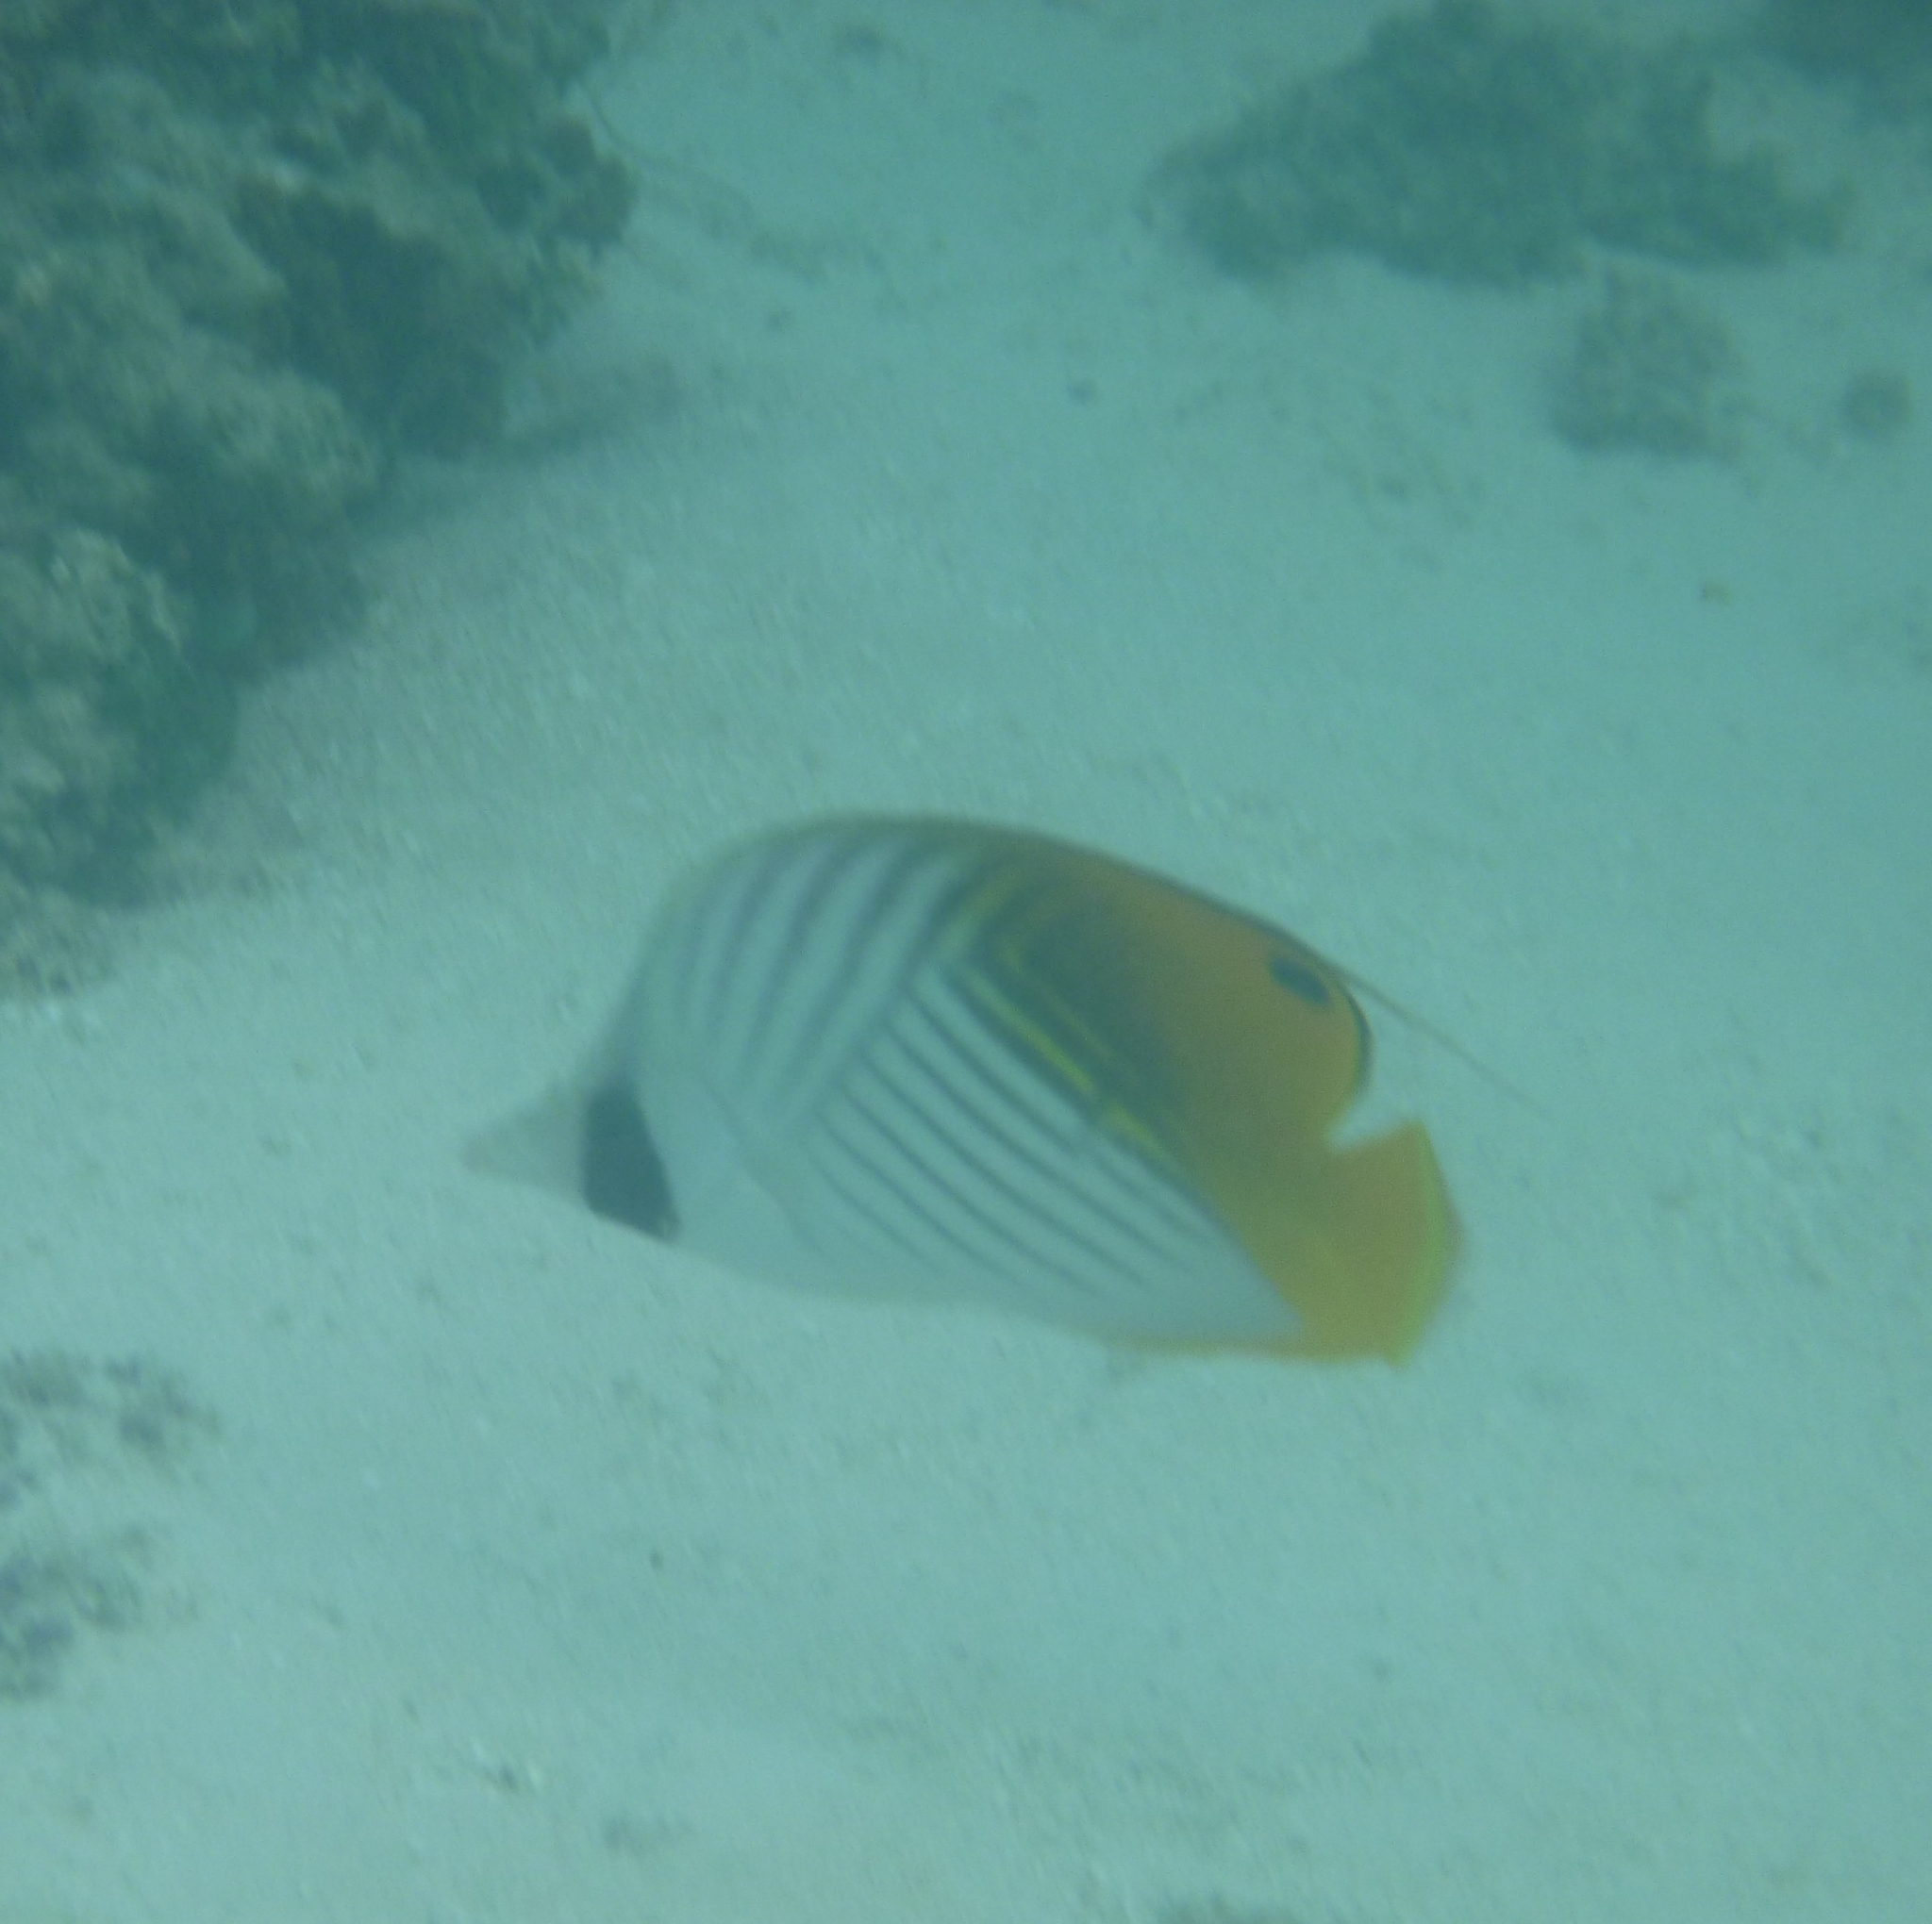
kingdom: Animalia
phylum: Chordata
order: Perciformes
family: Chaetodontidae
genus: Chaetodon
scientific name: Chaetodon auriga
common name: Threadfin butterflyfish
